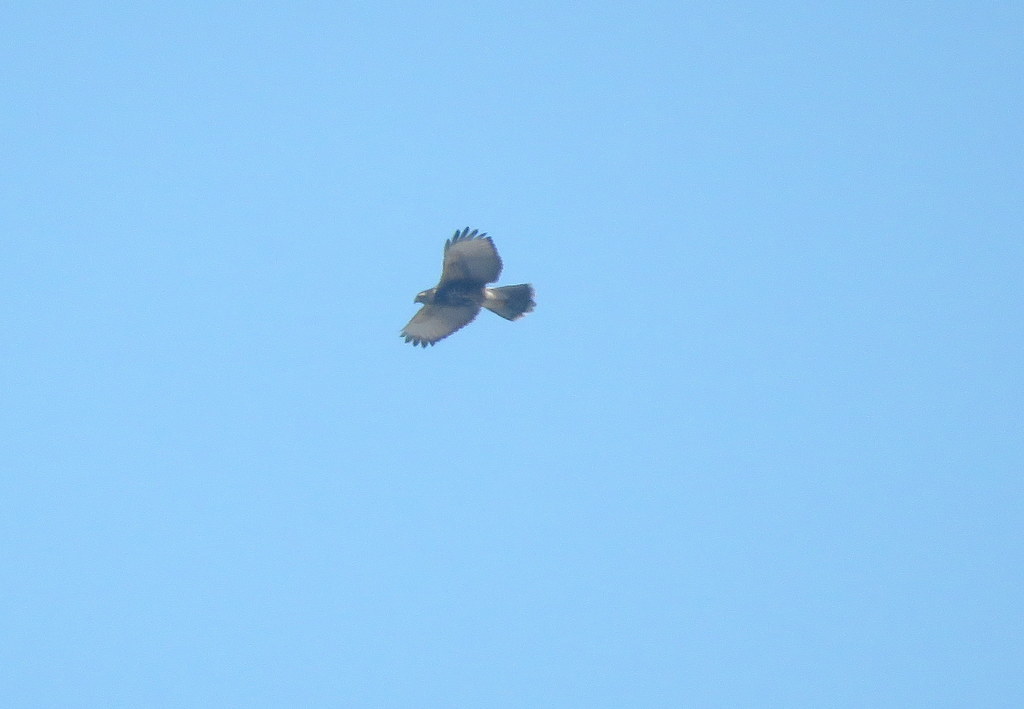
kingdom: Animalia
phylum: Chordata
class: Aves
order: Accipitriformes
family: Accipitridae
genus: Parabuteo
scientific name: Parabuteo unicinctus
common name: Harris's hawk
